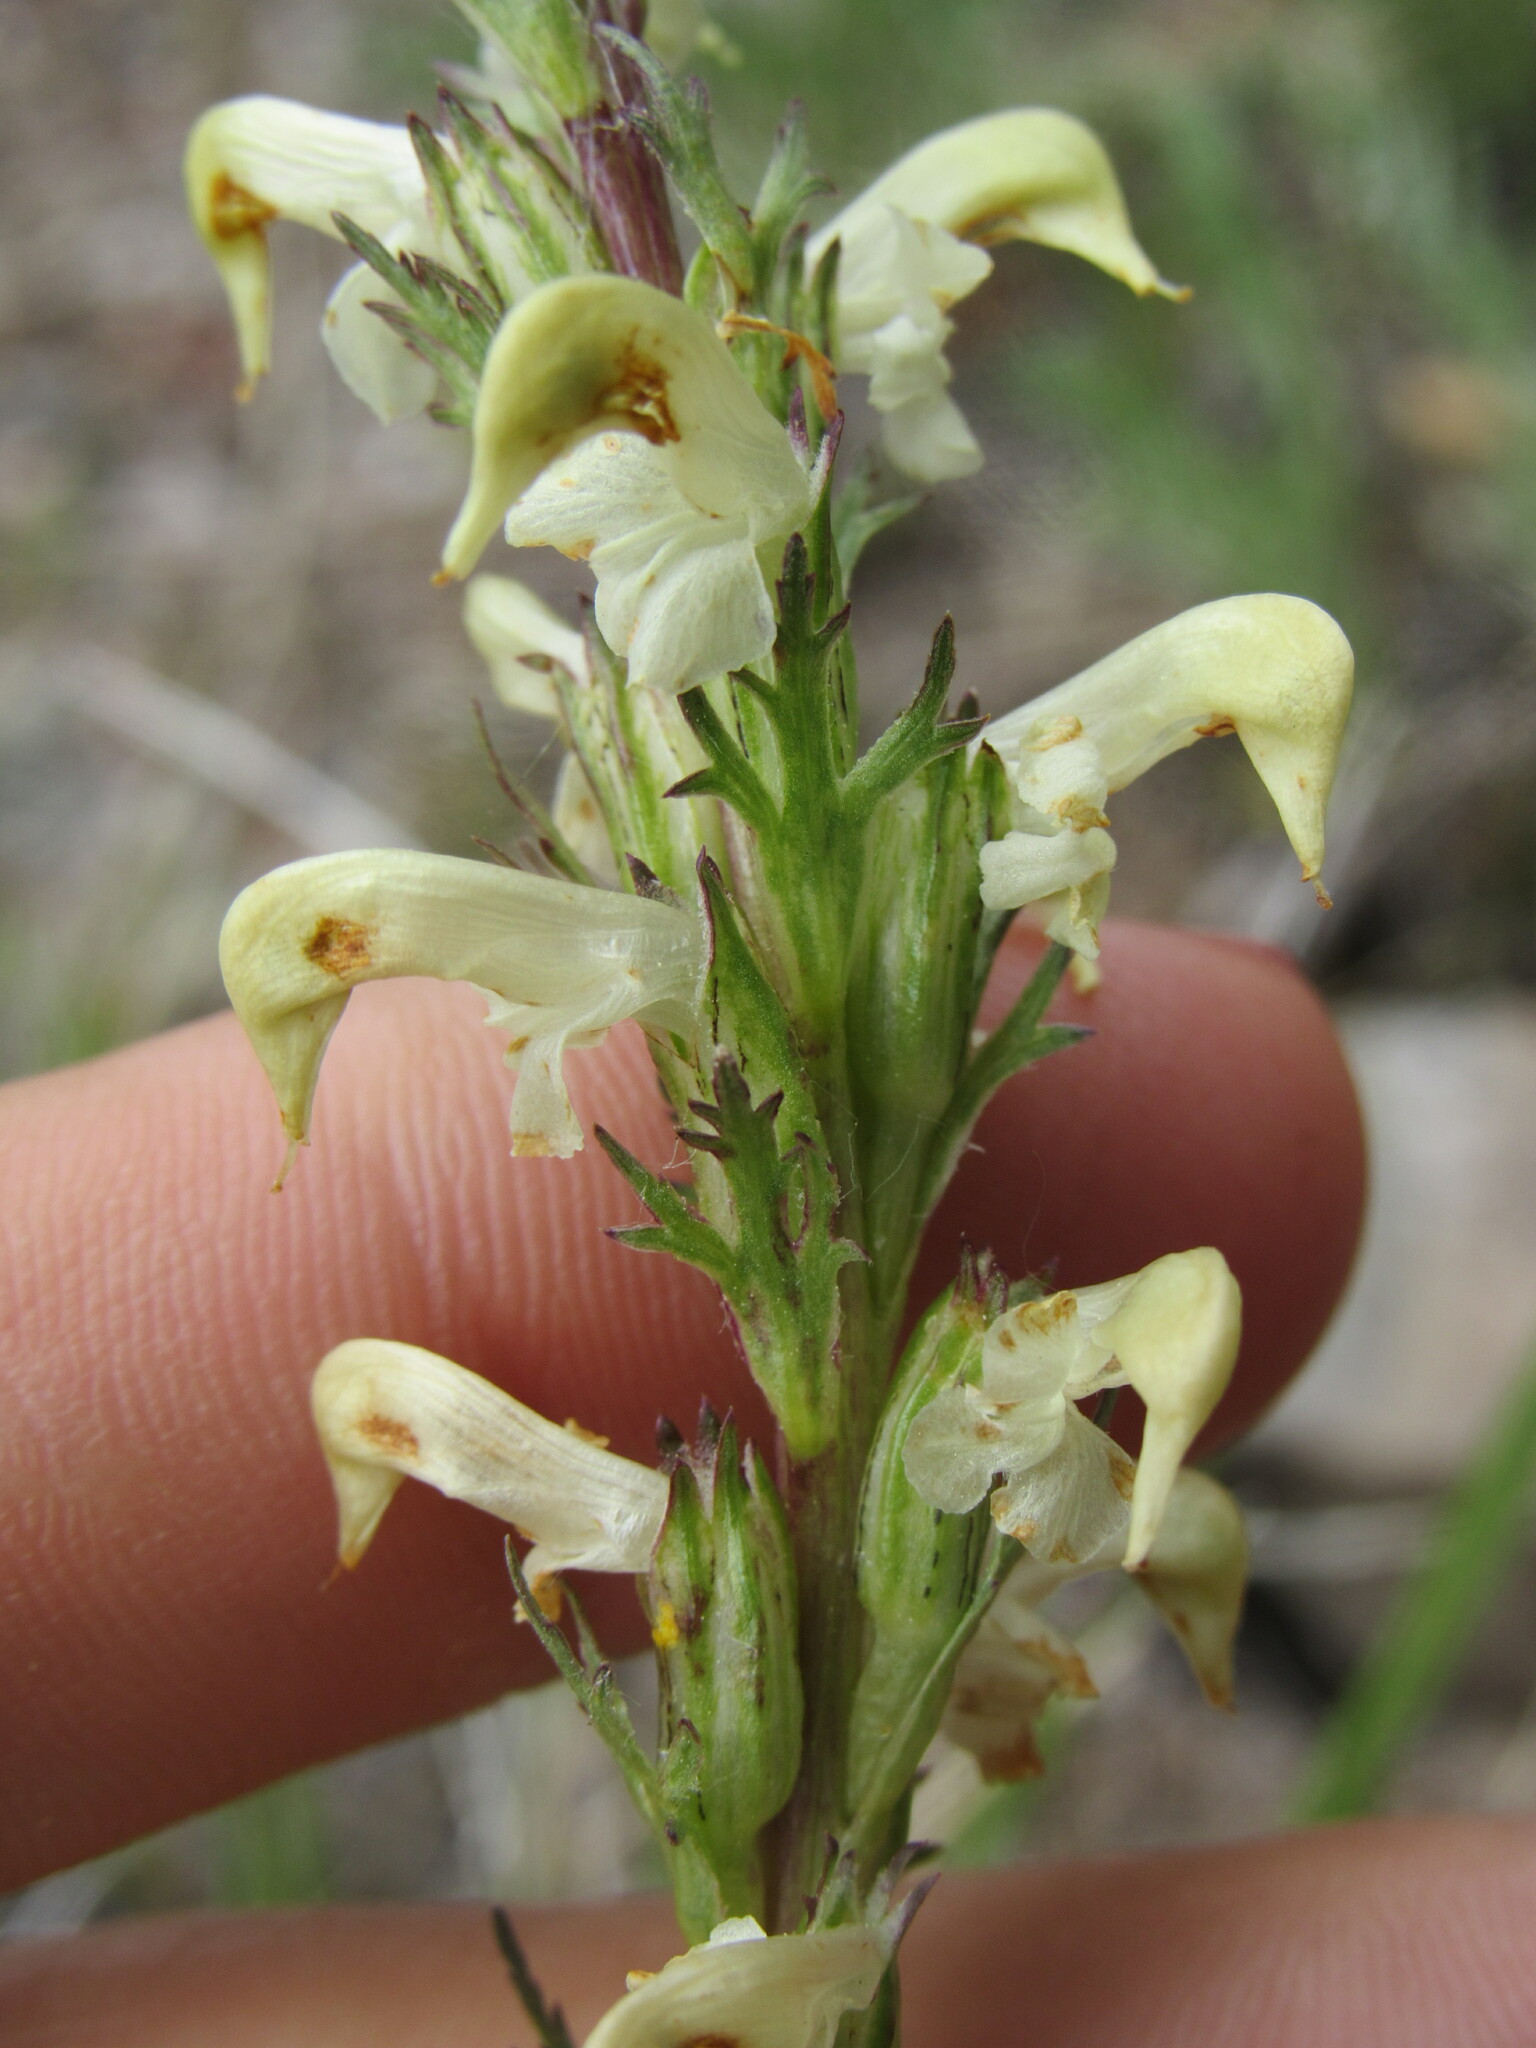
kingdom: Plantae
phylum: Tracheophyta
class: Magnoliopsida
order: Lamiales
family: Orobanchaceae
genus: Pedicularis
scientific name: Pedicularis parryi
